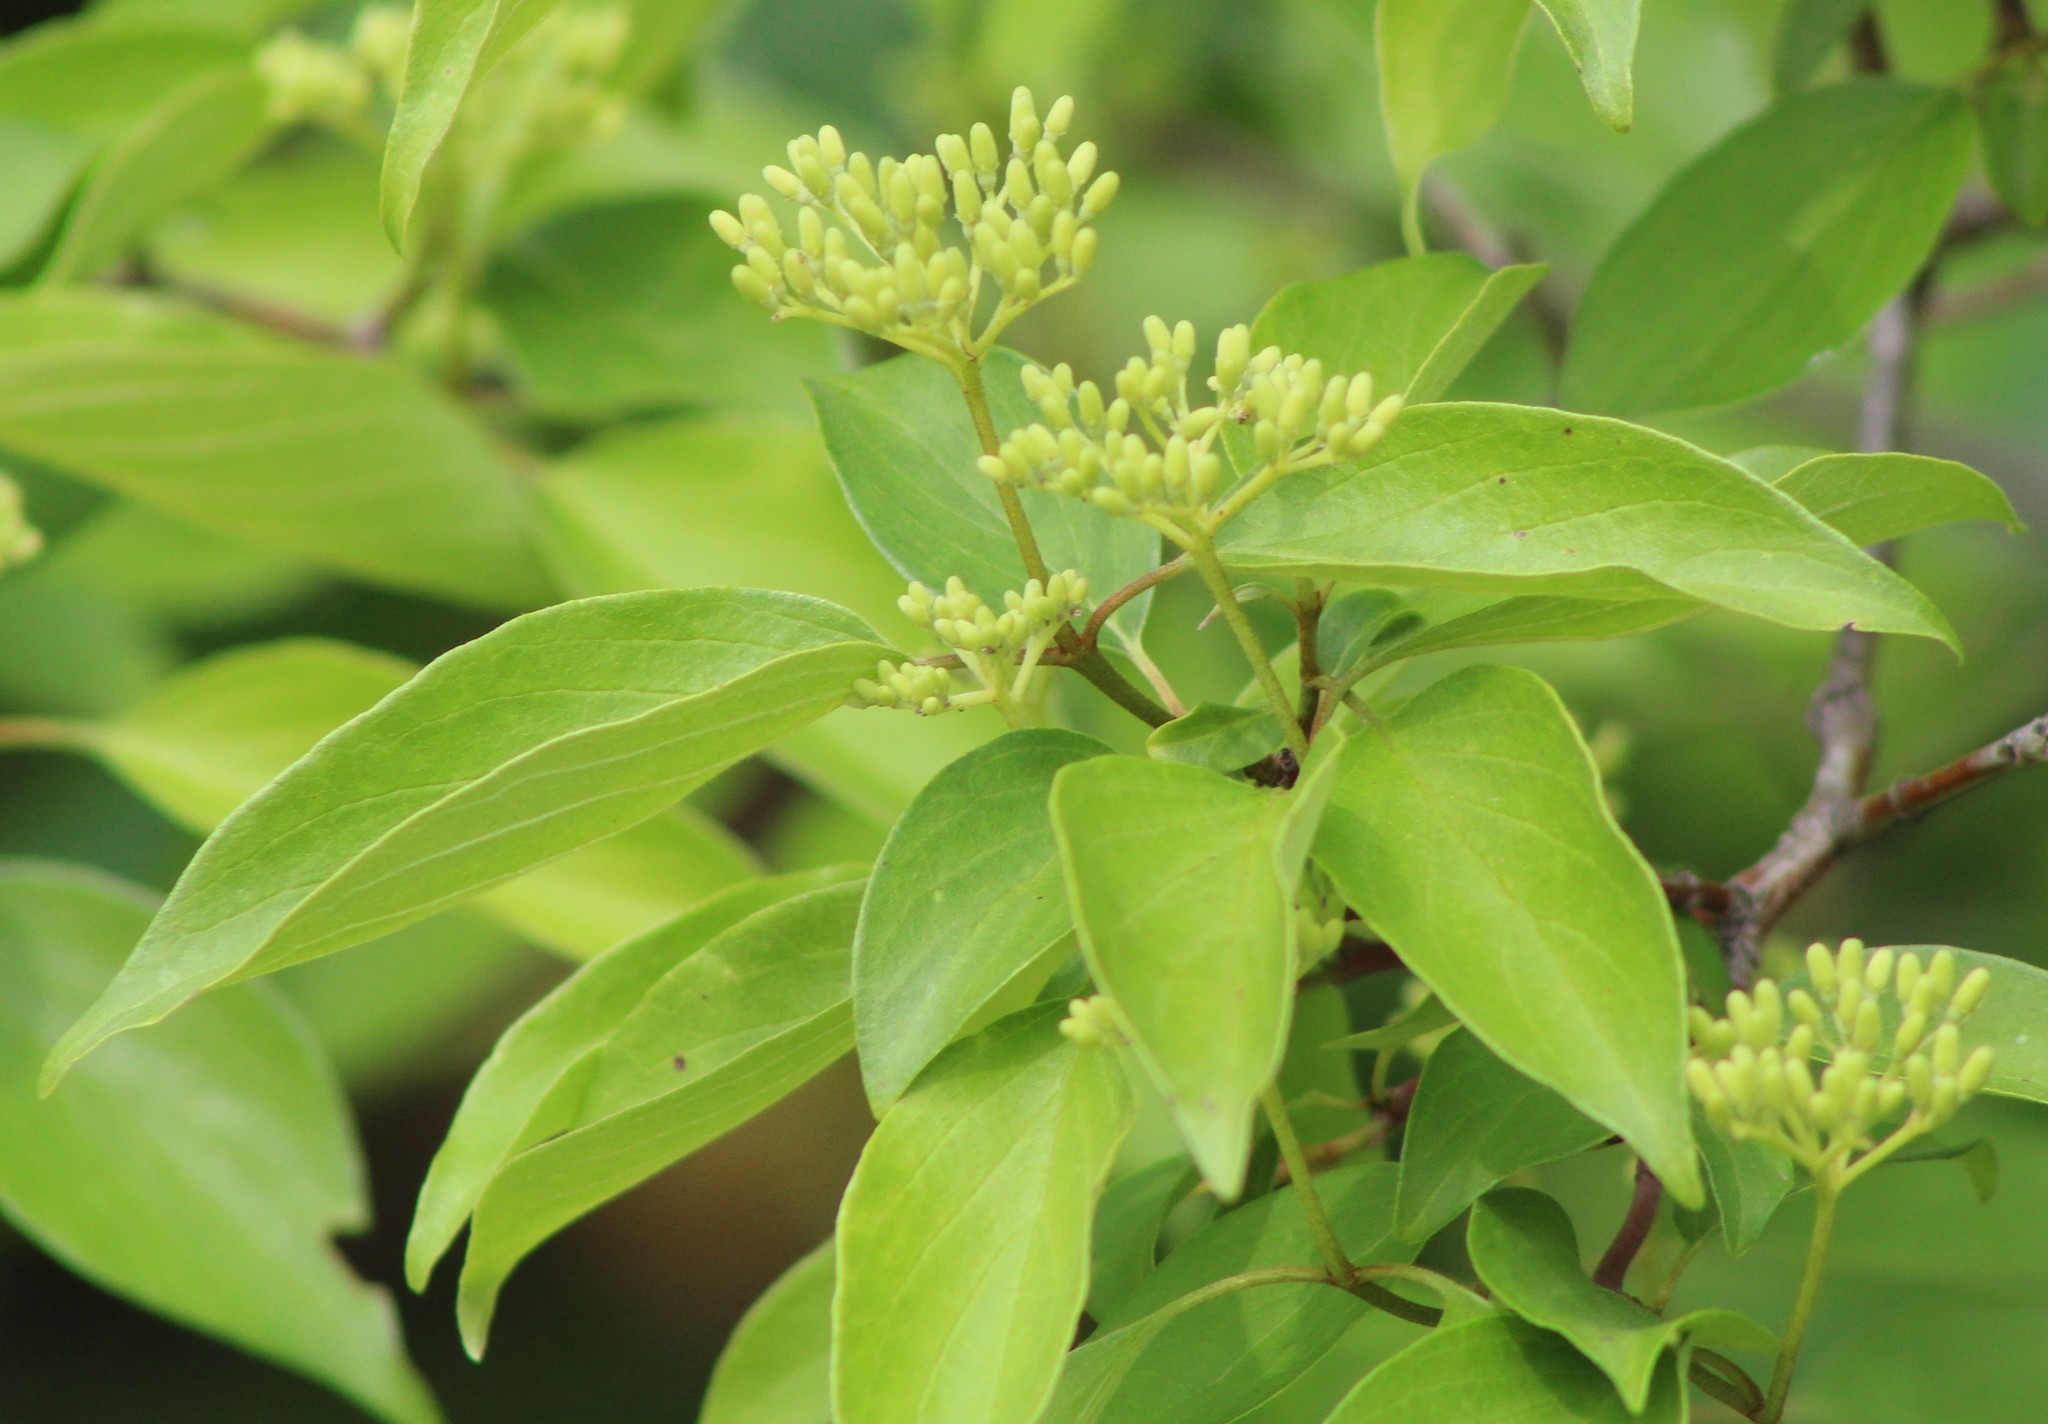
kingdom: Plantae
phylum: Tracheophyta
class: Magnoliopsida
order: Cornales
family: Cornaceae
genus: Cornus
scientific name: Cornus drummondii
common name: Rough-leaf dogwood
